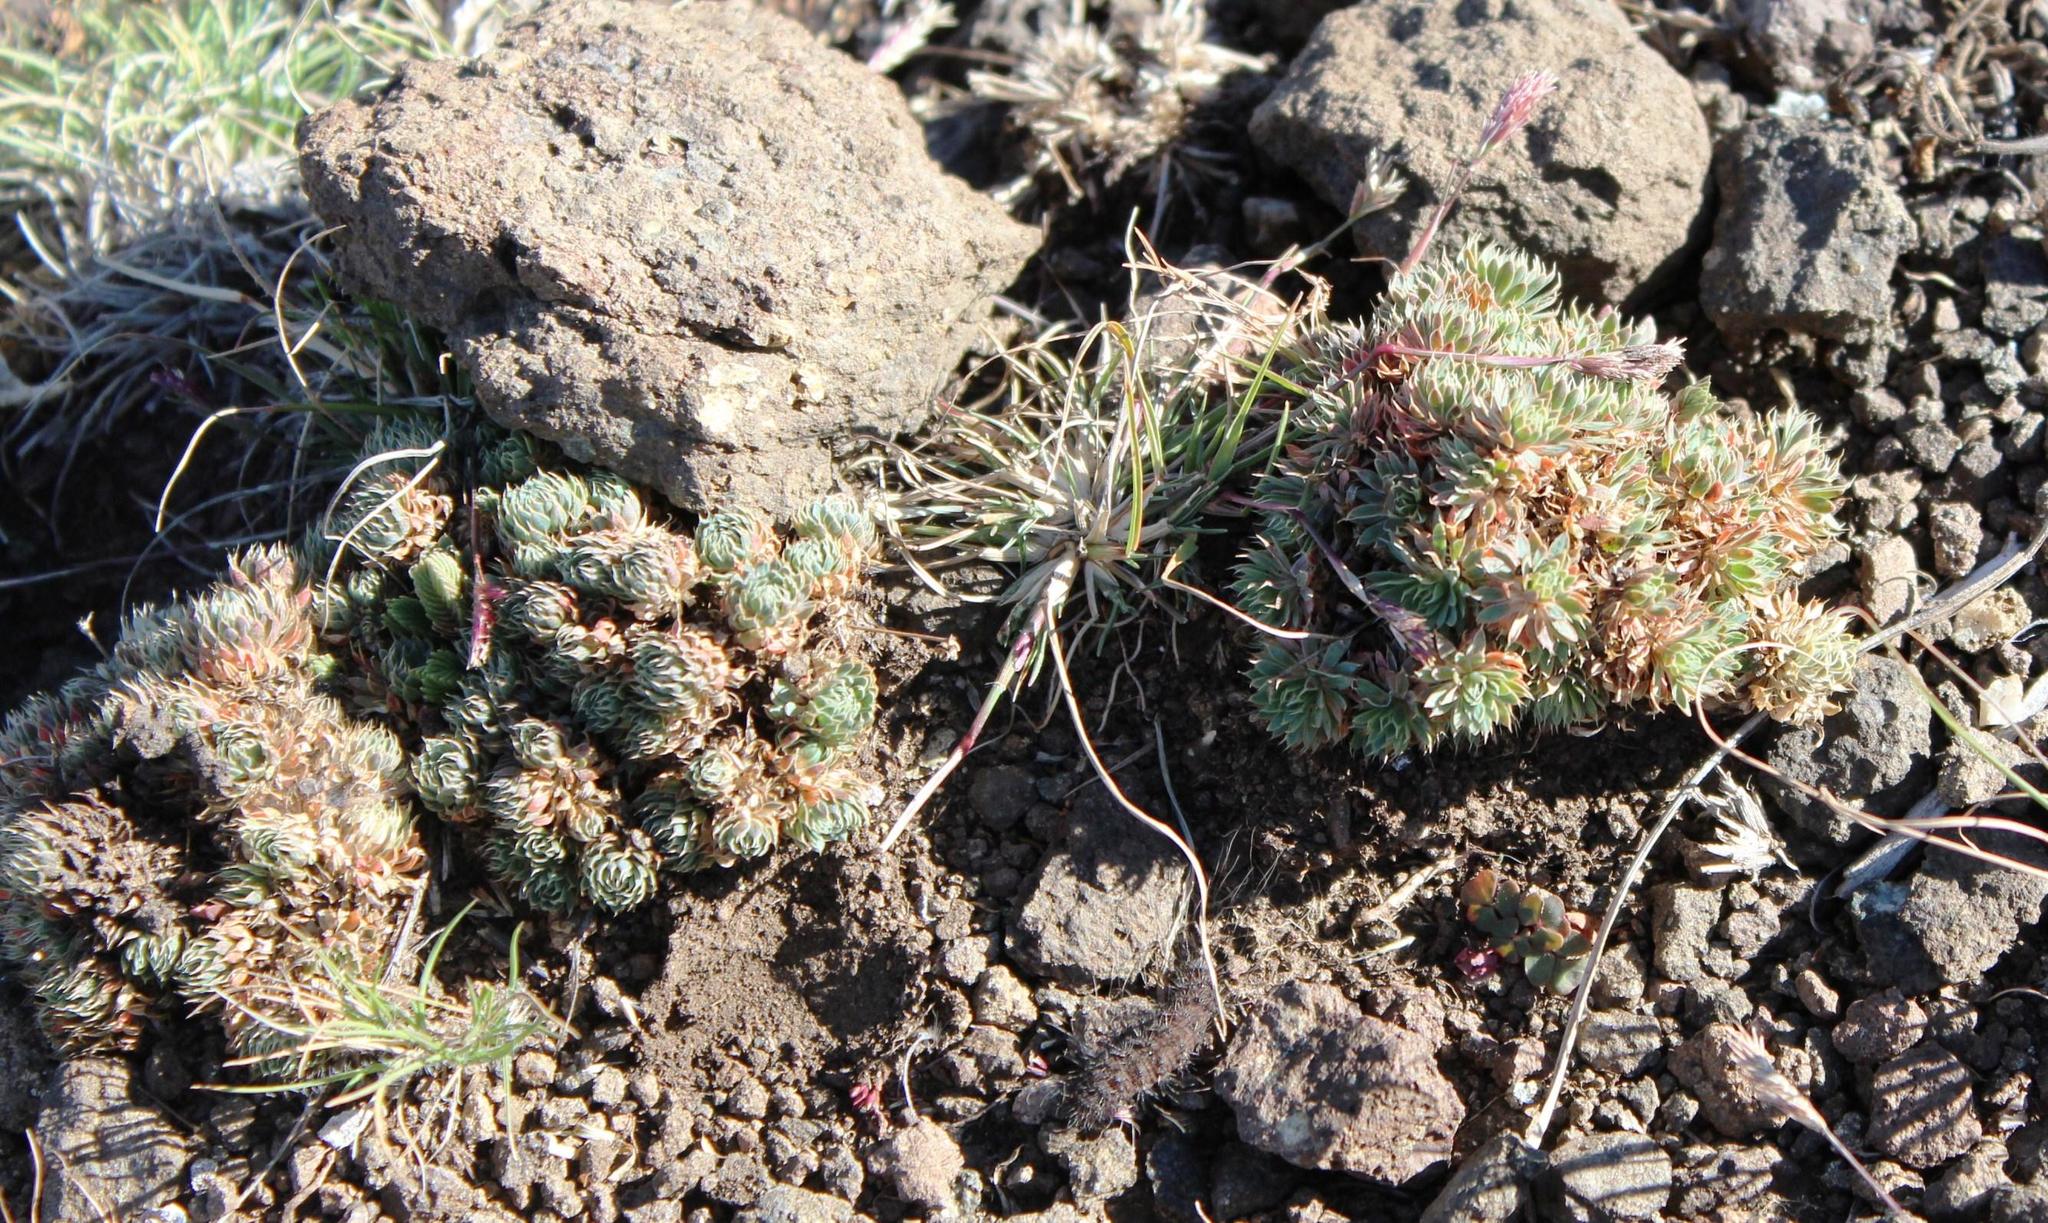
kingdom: Plantae
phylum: Tracheophyta
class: Magnoliopsida
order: Caryophyllales
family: Molluginaceae
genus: Psammotropha
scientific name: Psammotropha mucronata
